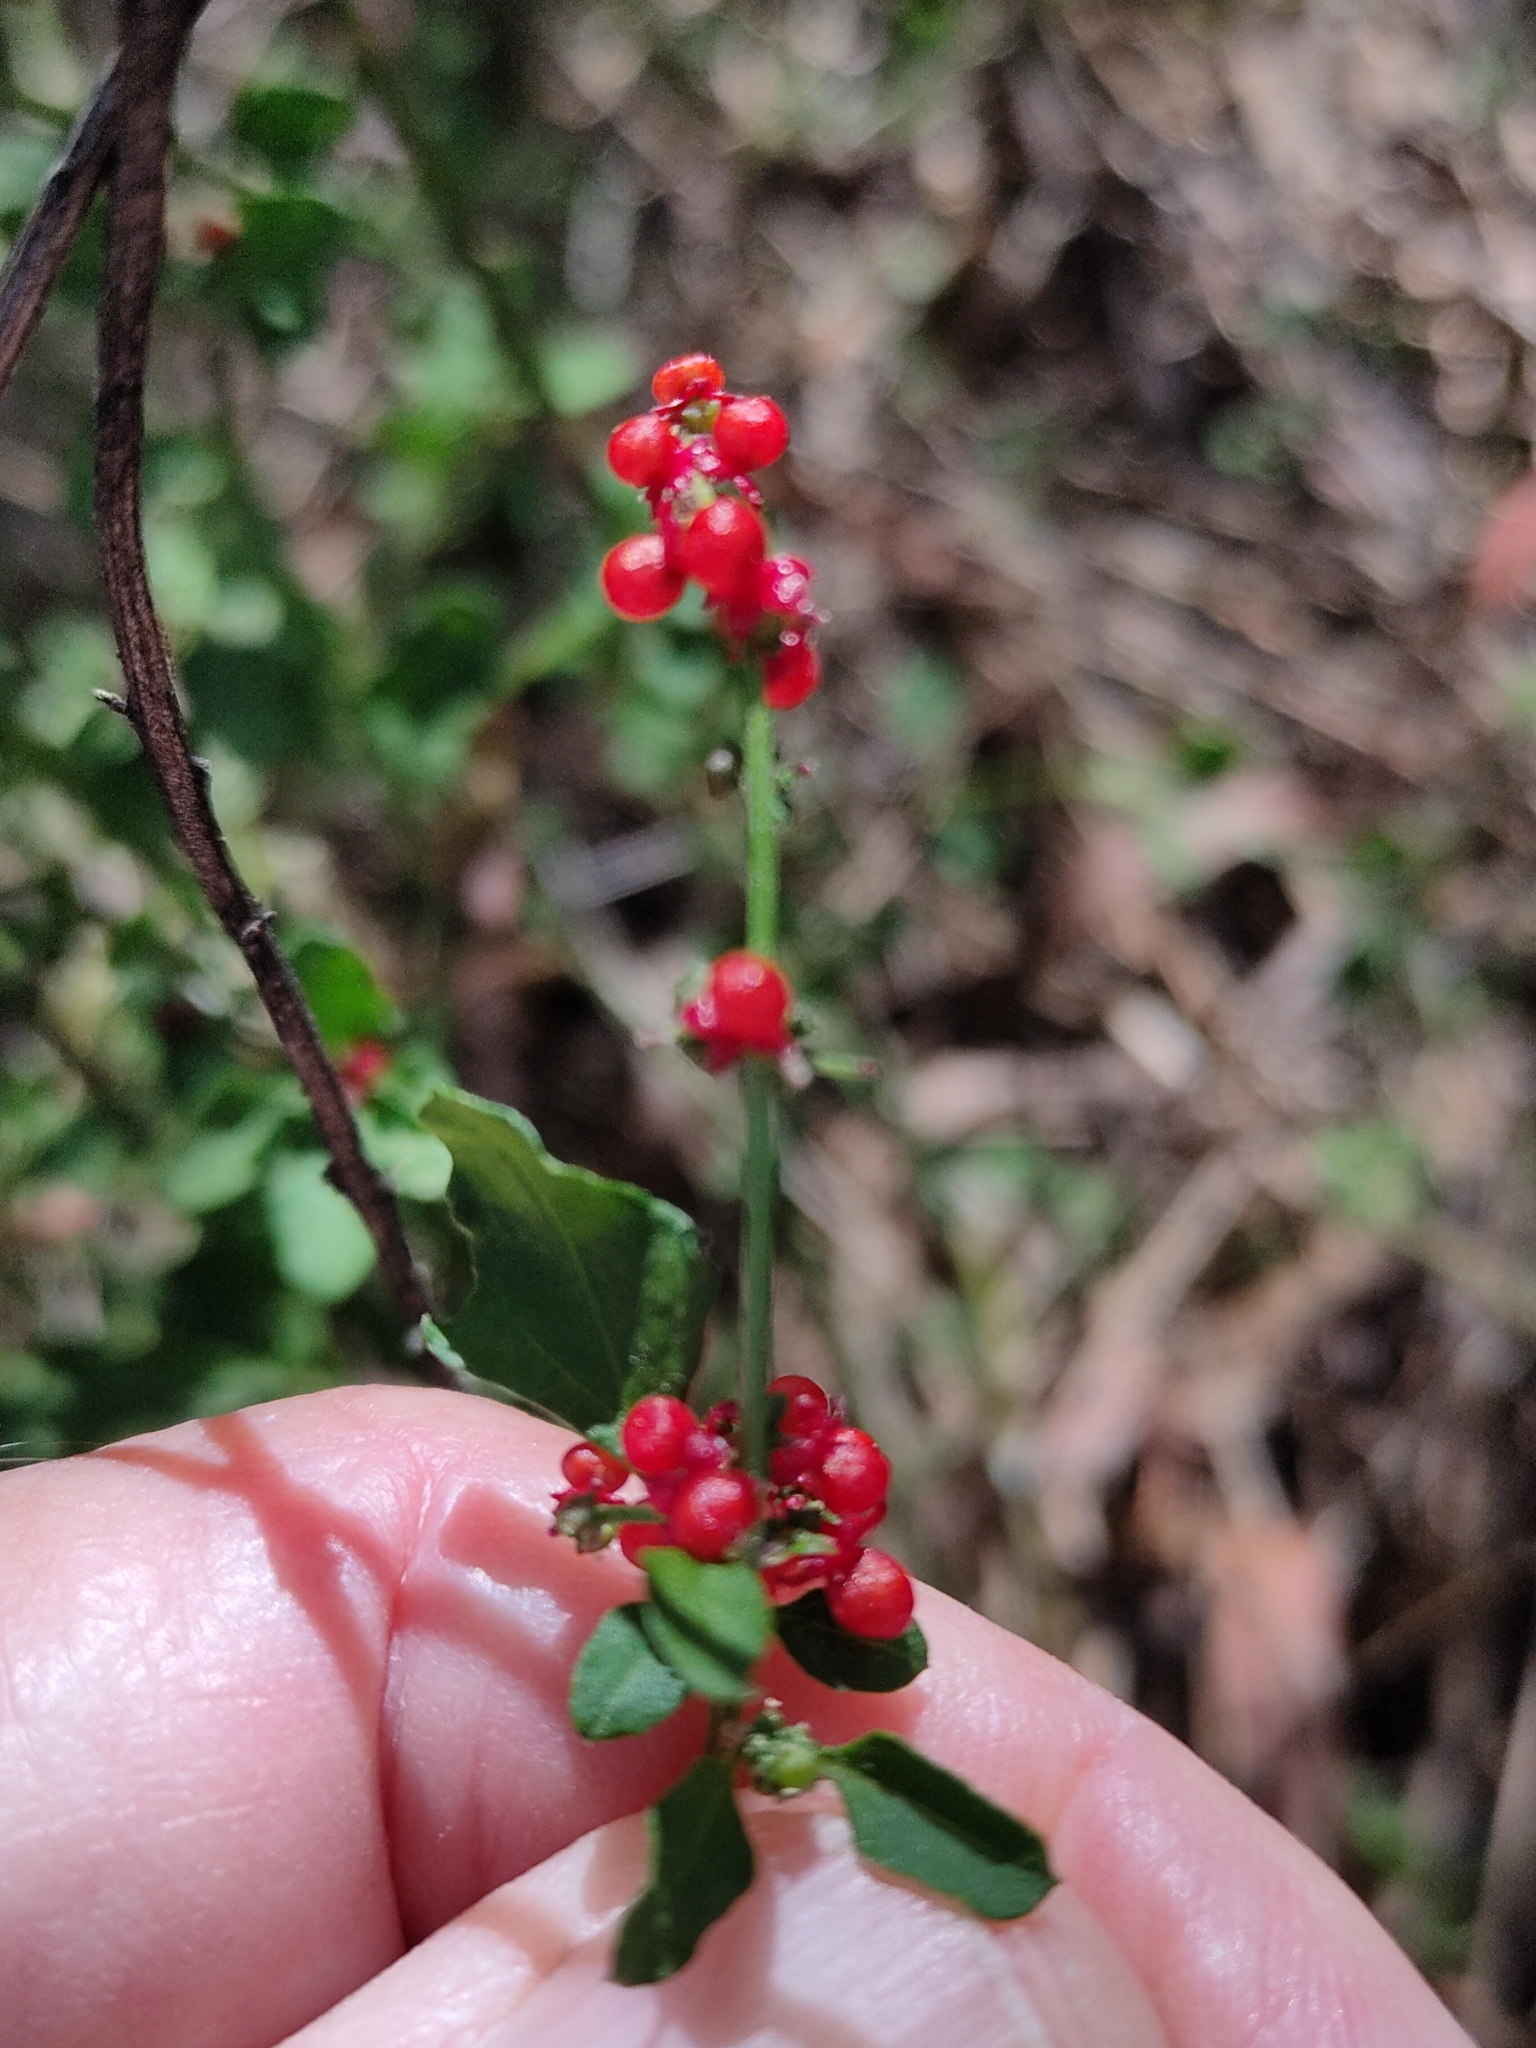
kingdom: Plantae
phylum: Tracheophyta
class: Magnoliopsida
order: Caryophyllales
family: Amaranthaceae
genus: Chenopodium
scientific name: Chenopodium robertianum
